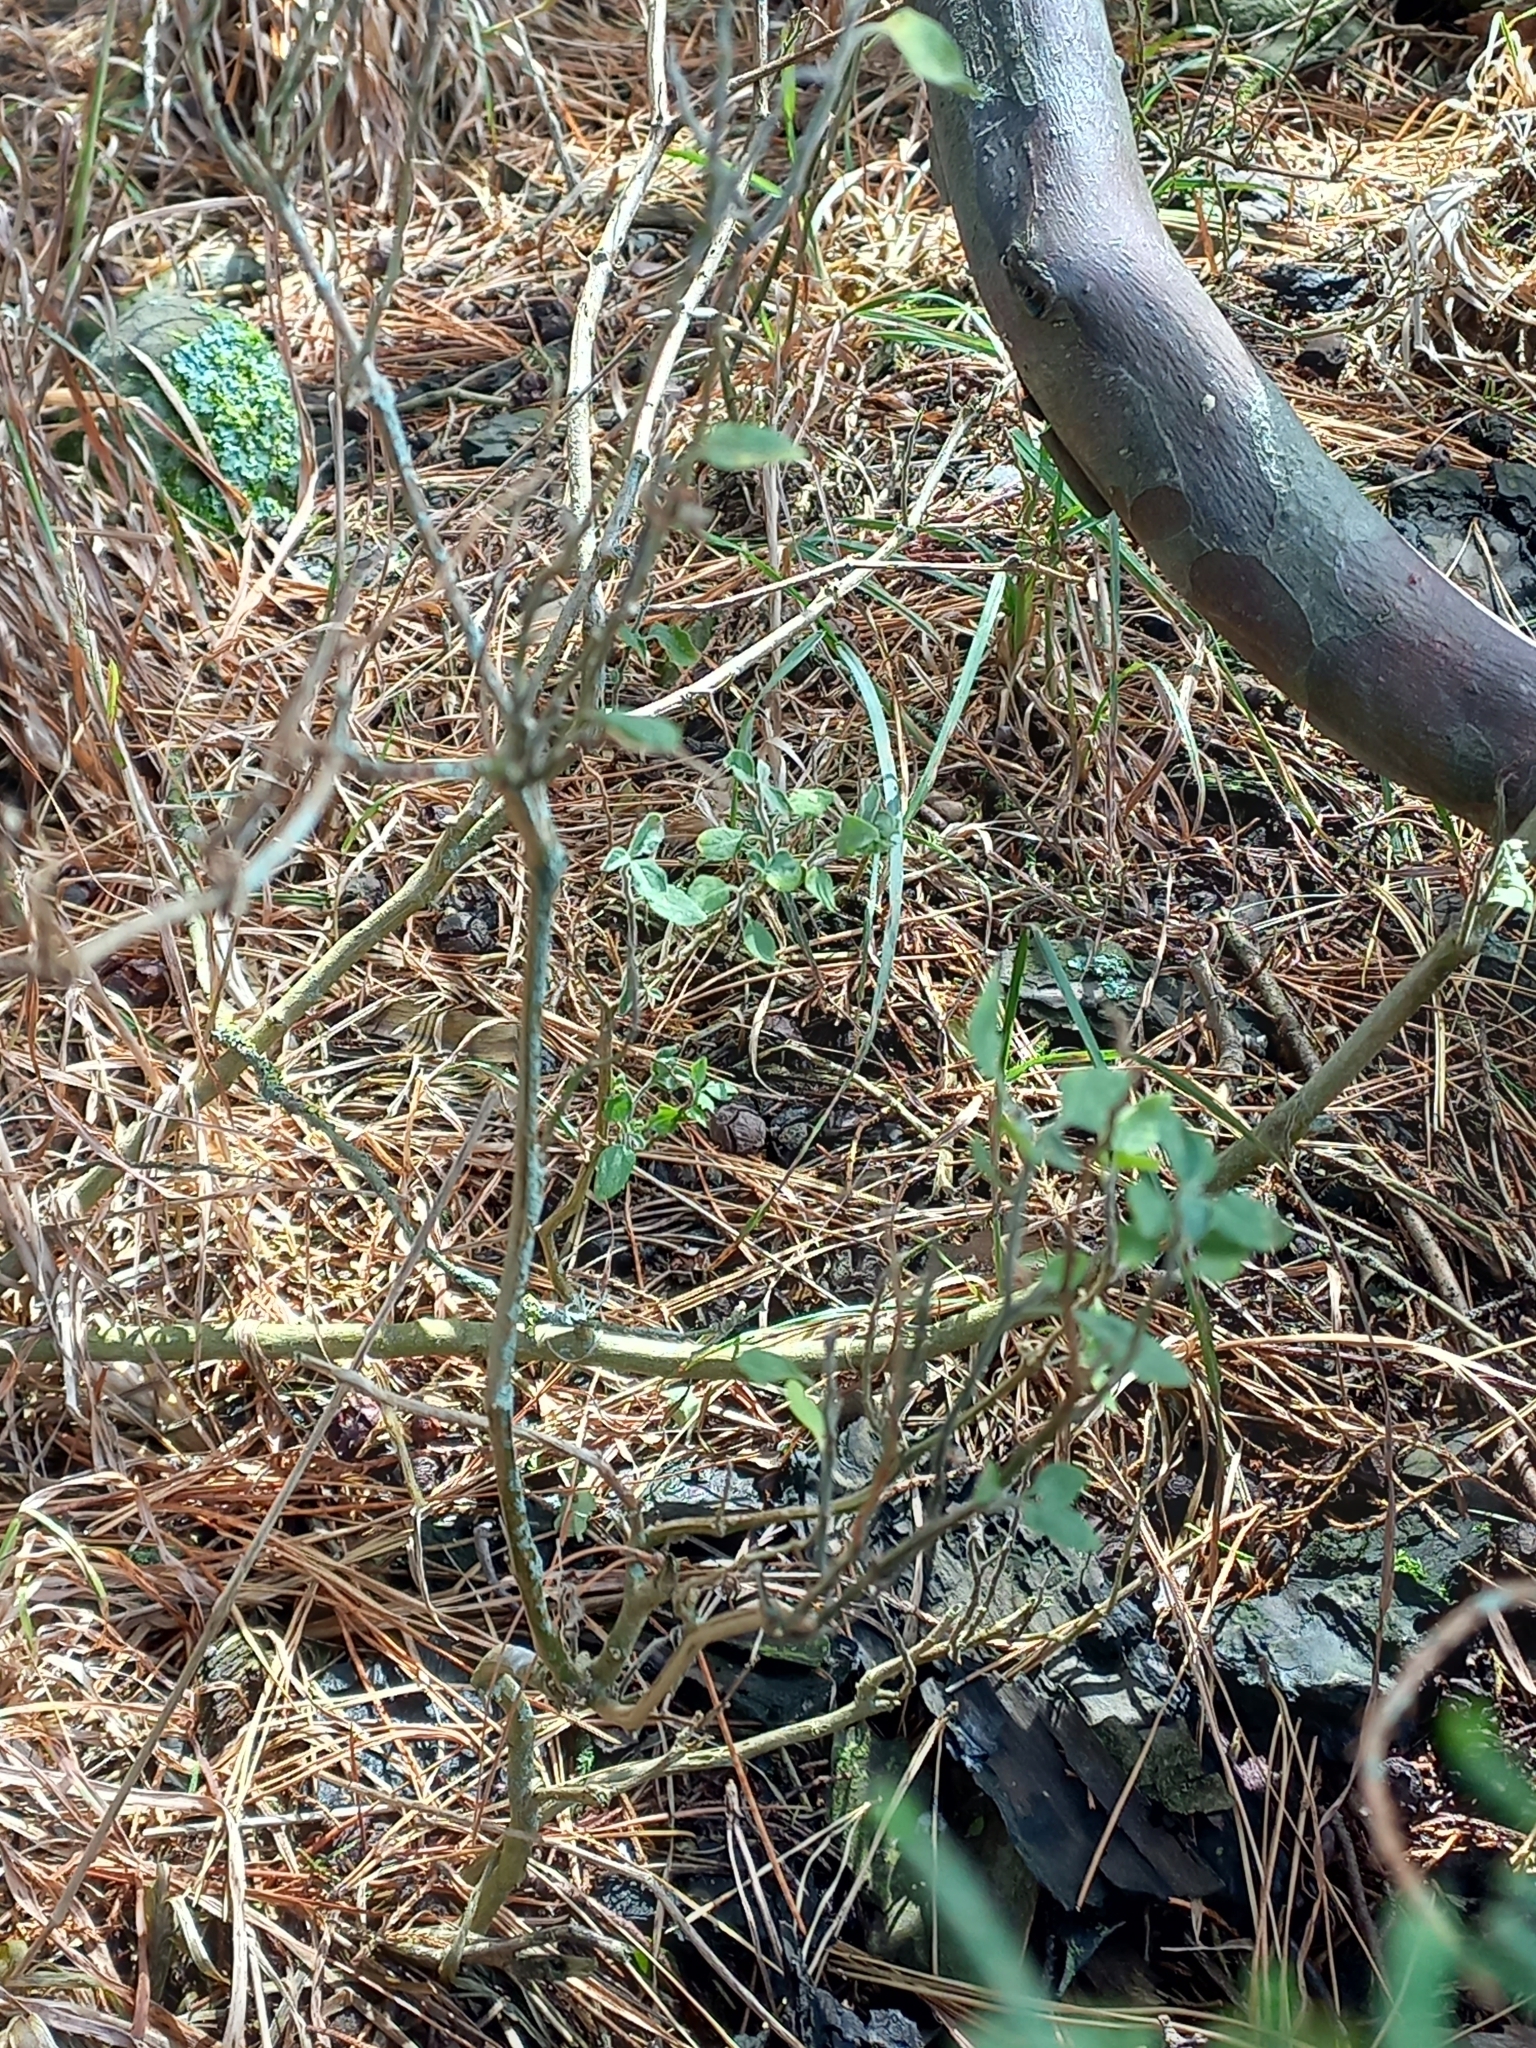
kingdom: Plantae
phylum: Tracheophyta
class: Magnoliopsida
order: Solanales
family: Solanaceae
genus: Solanum
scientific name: Solanum chenopodioides
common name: Tall nightshade
